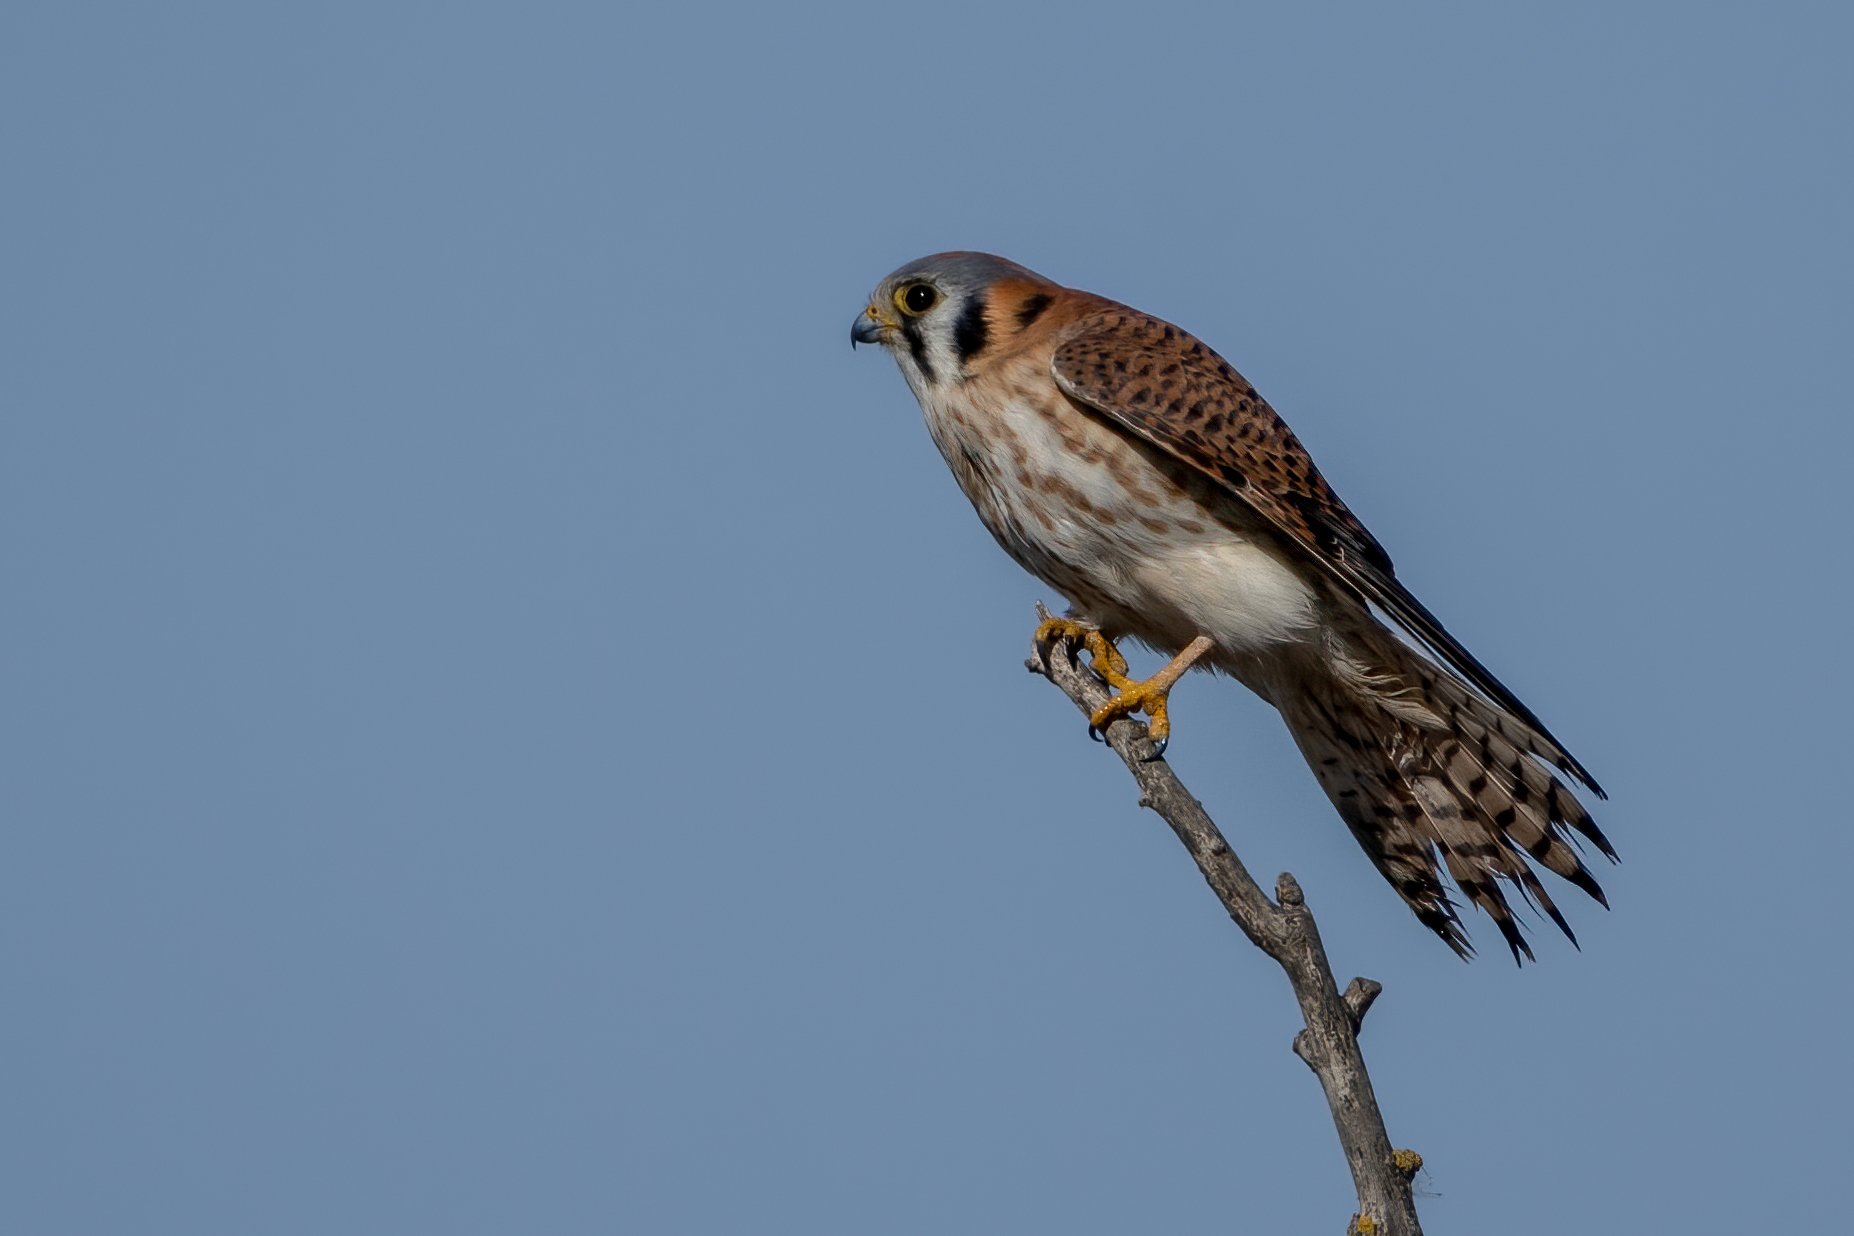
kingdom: Animalia
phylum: Chordata
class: Aves
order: Falconiformes
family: Falconidae
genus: Falco
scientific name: Falco sparverius
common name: American kestrel
